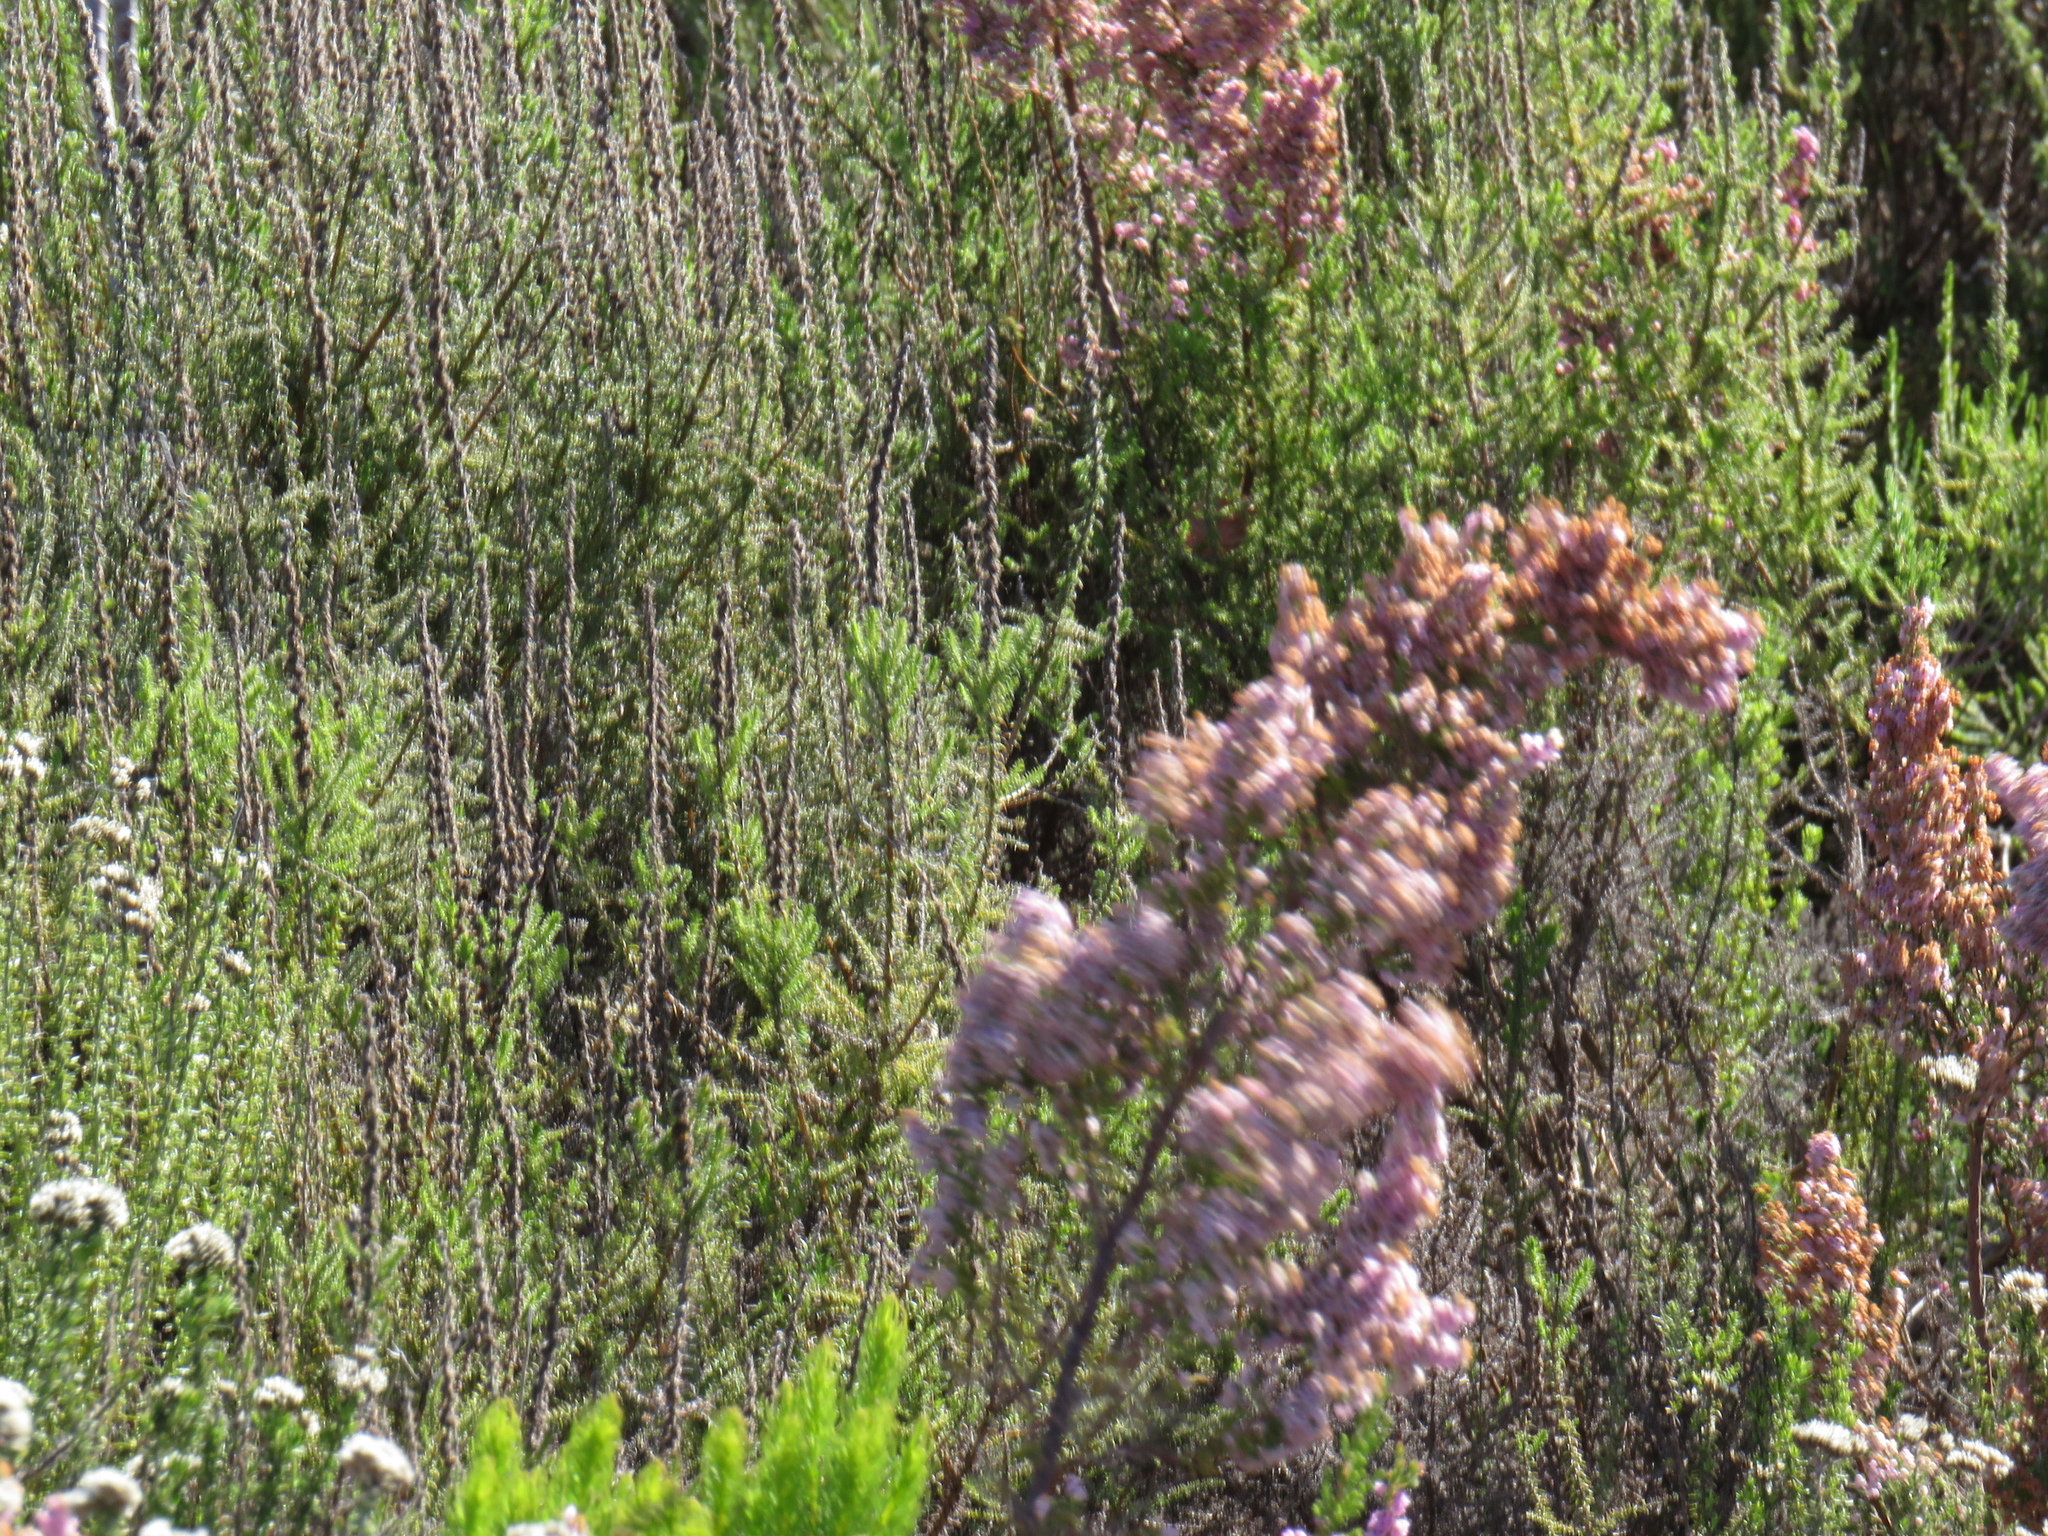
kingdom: Plantae
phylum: Tracheophyta
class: Magnoliopsida
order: Ericales
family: Ericaceae
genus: Erica
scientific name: Erica mauritanica
